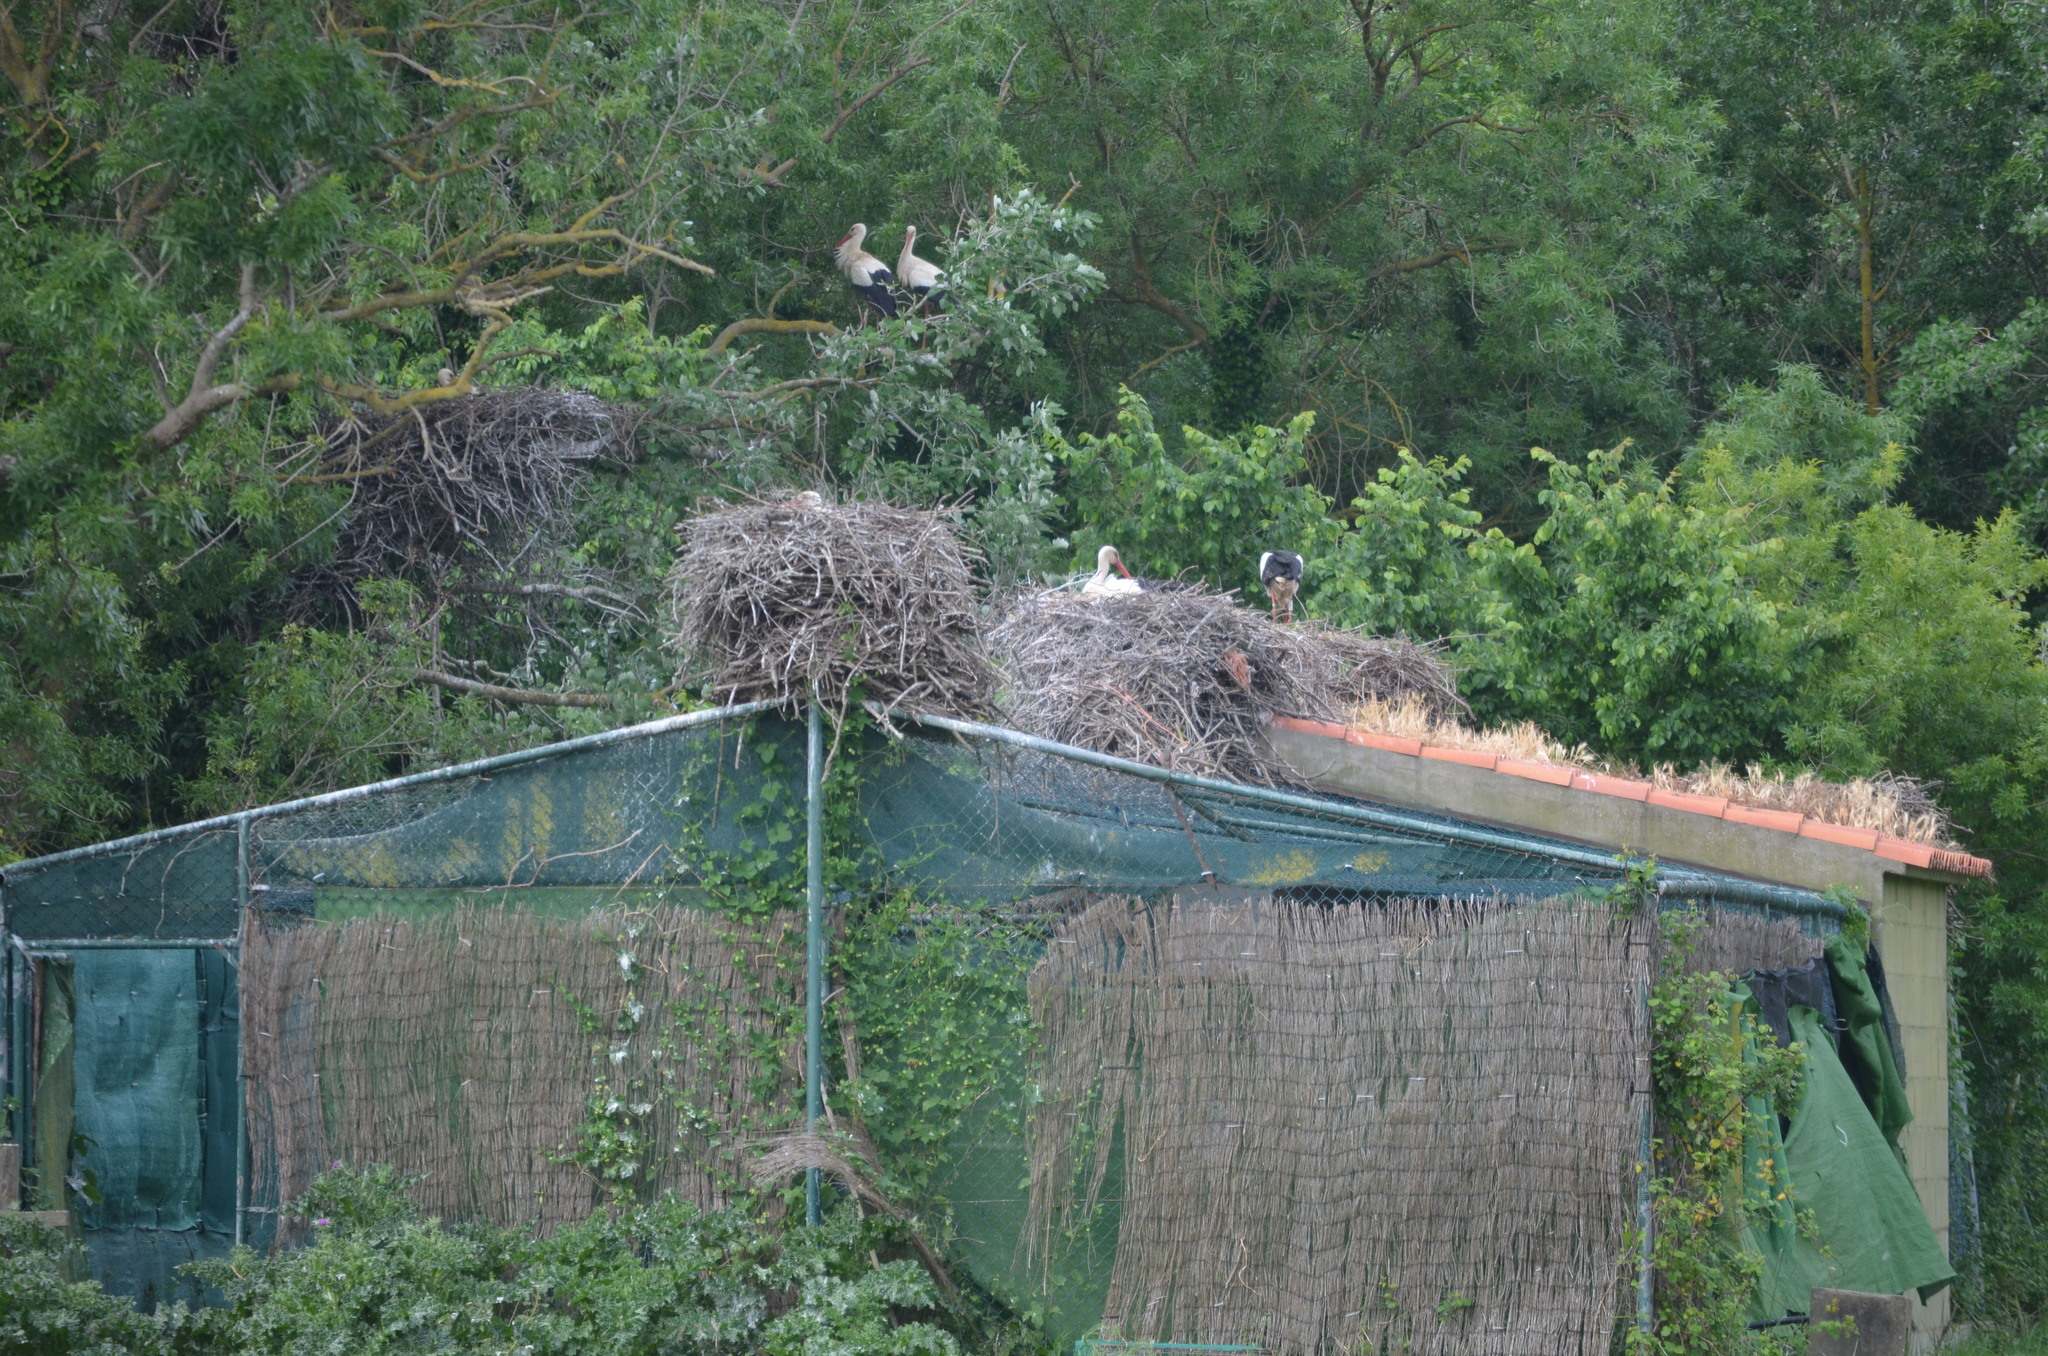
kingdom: Animalia
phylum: Chordata
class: Aves
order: Ciconiiformes
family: Ciconiidae
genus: Ciconia
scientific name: Ciconia ciconia
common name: White stork
